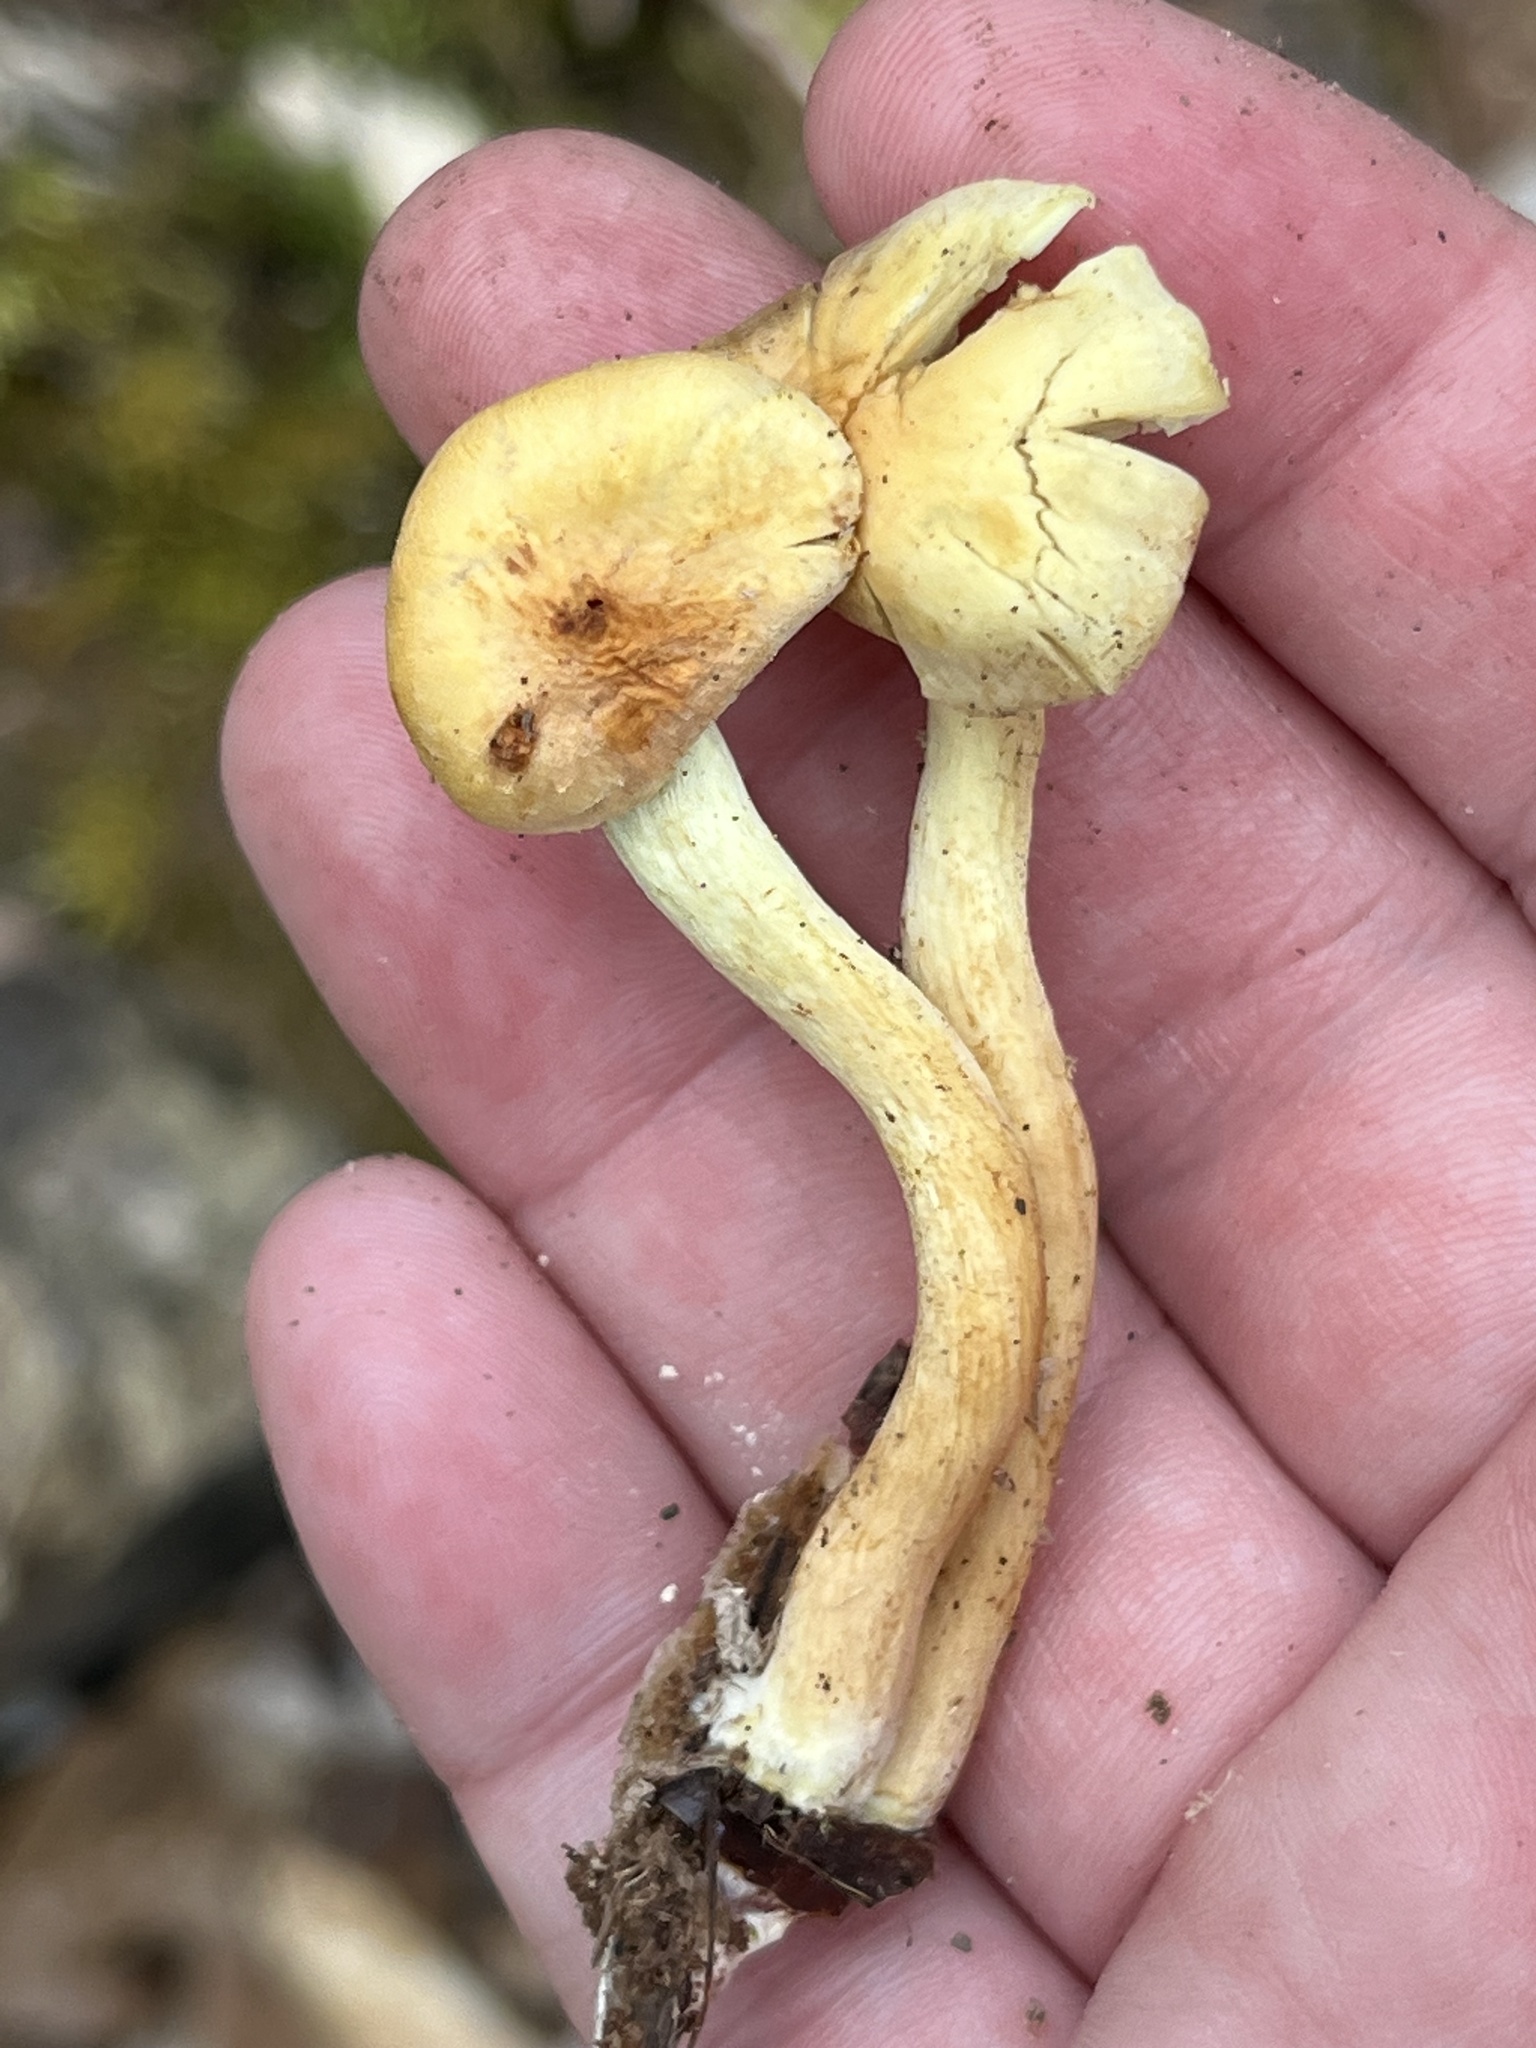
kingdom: Fungi
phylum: Basidiomycota
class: Agaricomycetes
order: Agaricales
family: Strophariaceae
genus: Hypholoma
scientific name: Hypholoma fasciculare
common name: Sulphur tuft
